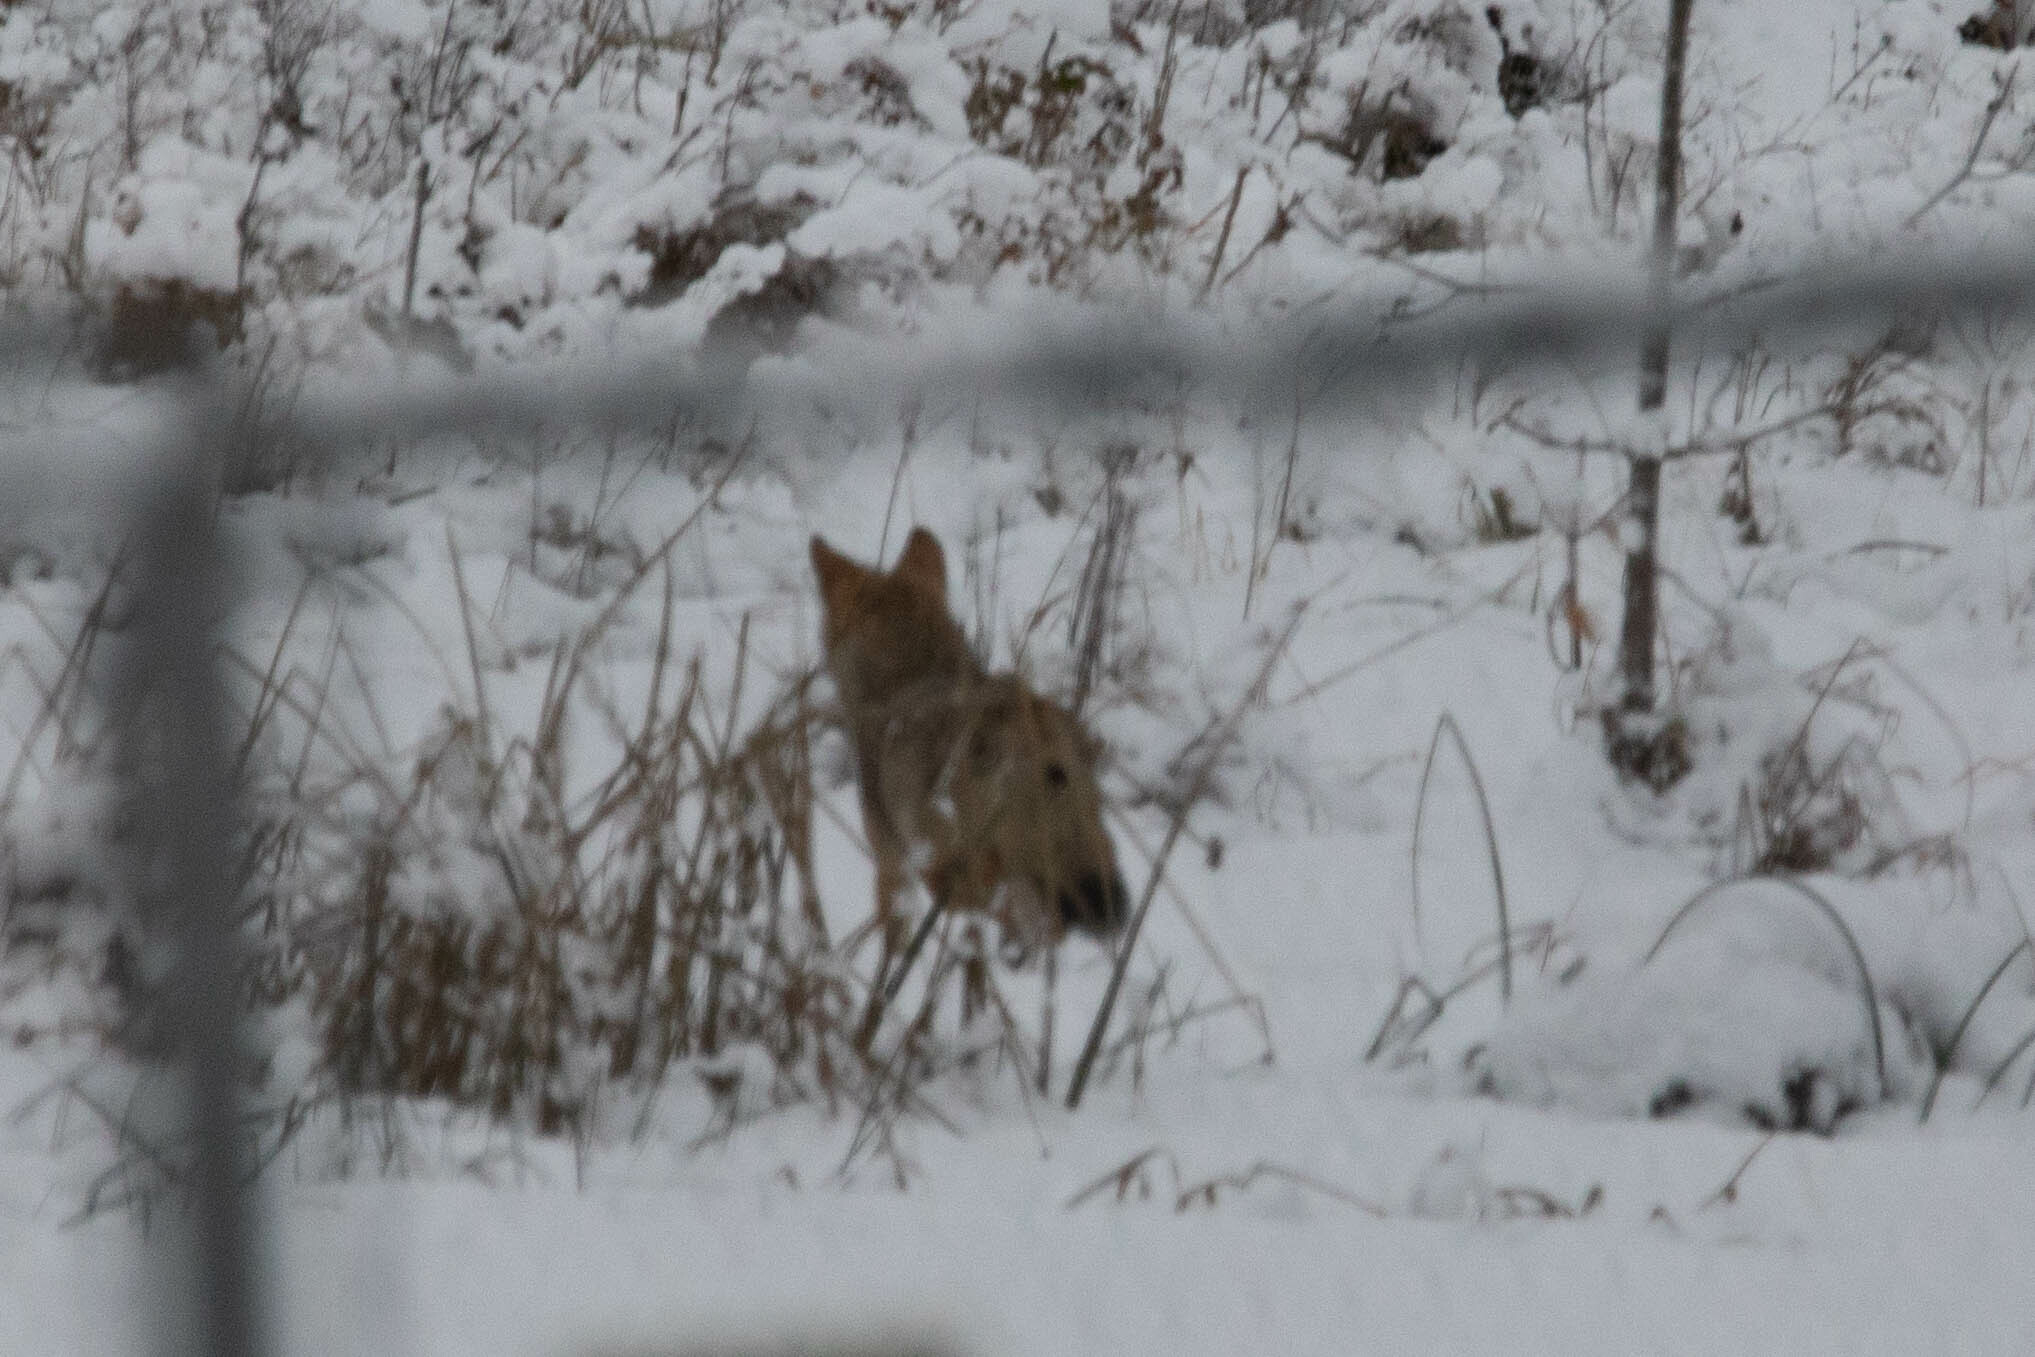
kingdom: Animalia
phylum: Chordata
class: Mammalia
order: Carnivora
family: Canidae
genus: Canis
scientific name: Canis latrans
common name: Coyote
